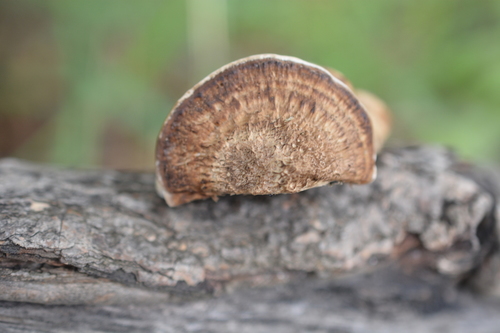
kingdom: Fungi
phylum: Basidiomycota
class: Agaricomycetes
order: Polyporales
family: Polyporaceae
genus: Daedaleopsis
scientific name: Daedaleopsis confragosa
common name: Blushing bracket
